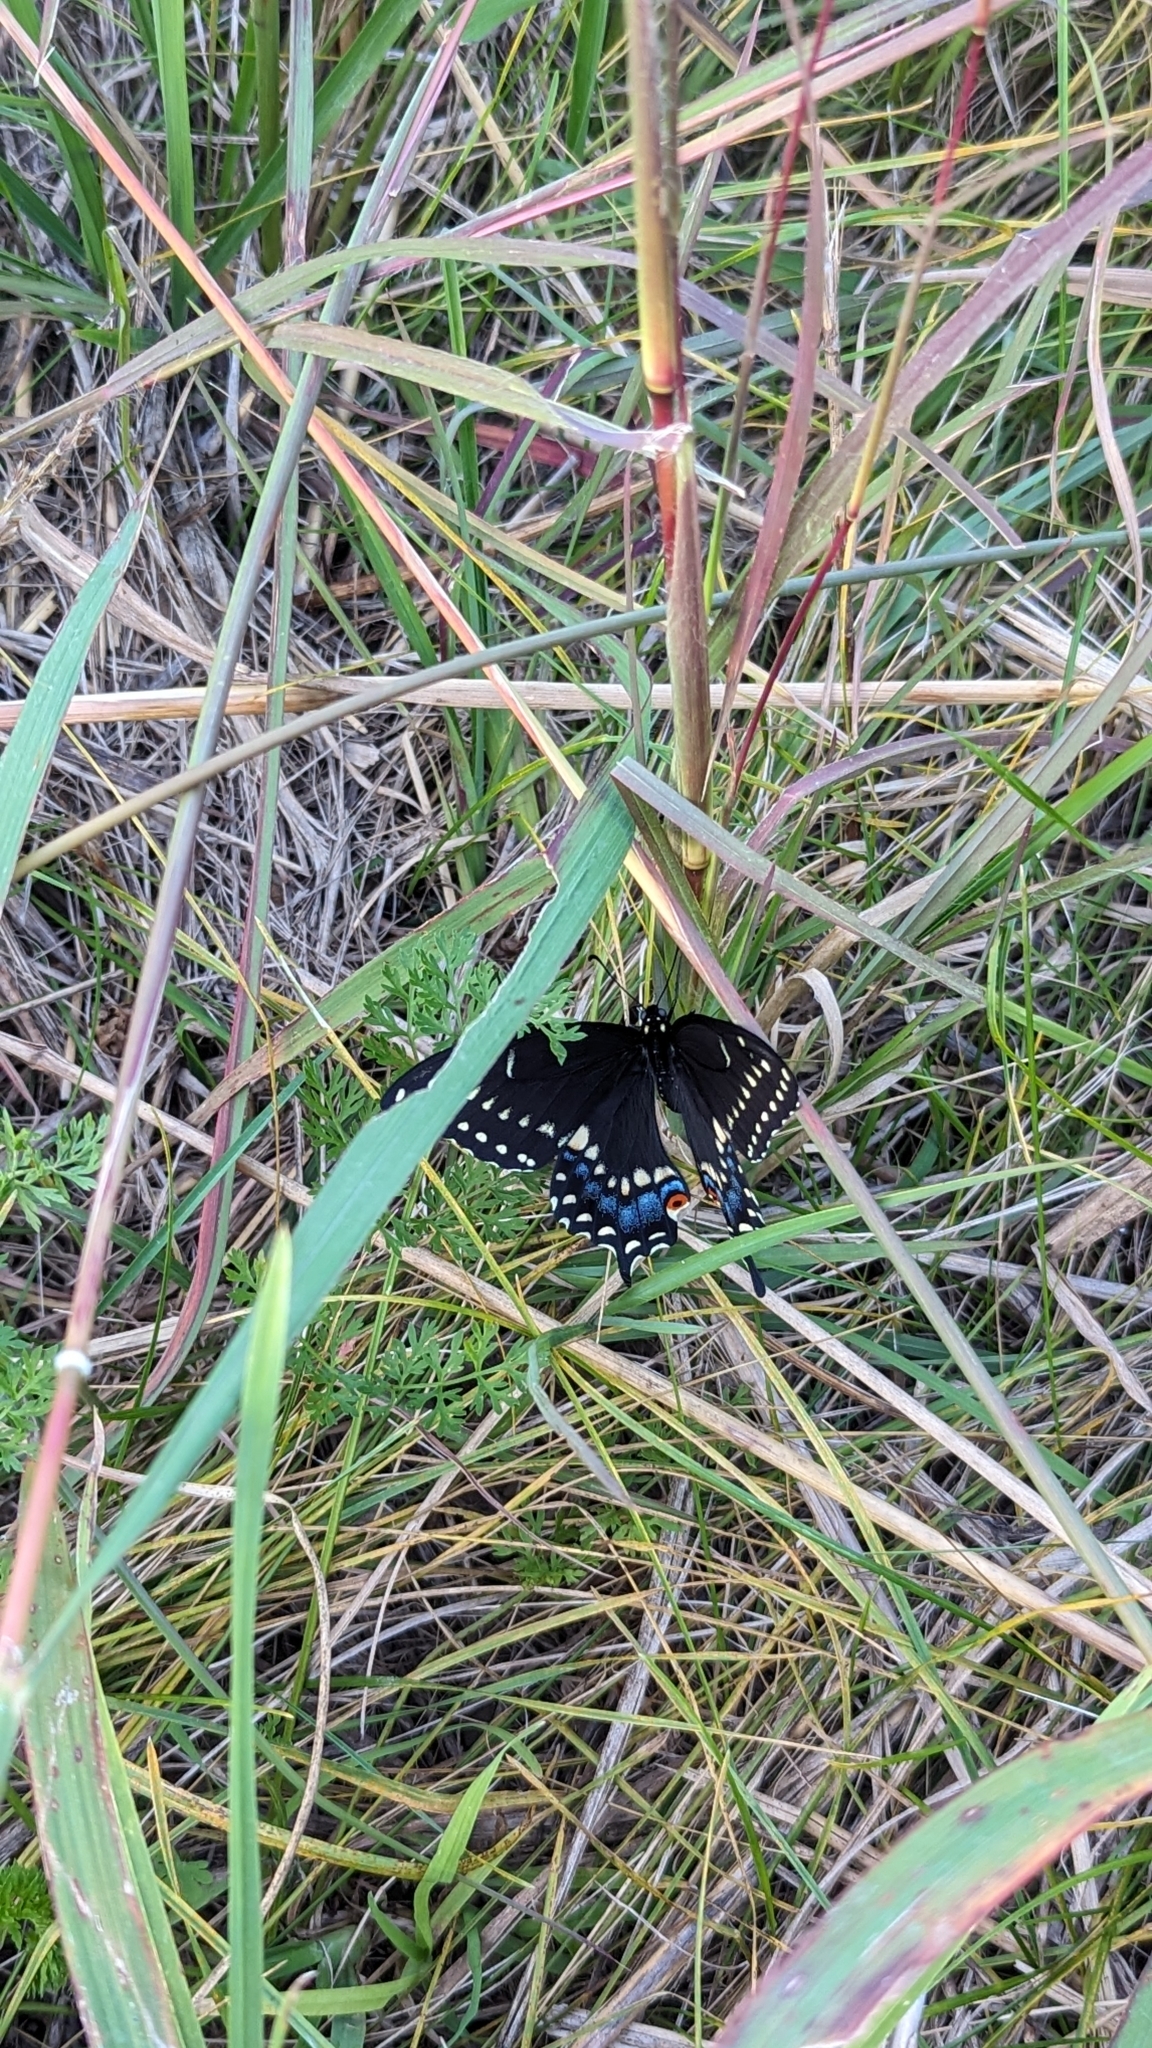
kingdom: Animalia
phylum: Arthropoda
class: Insecta
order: Lepidoptera
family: Papilionidae
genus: Papilio
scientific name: Papilio polyxenes
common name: Black swallowtail
